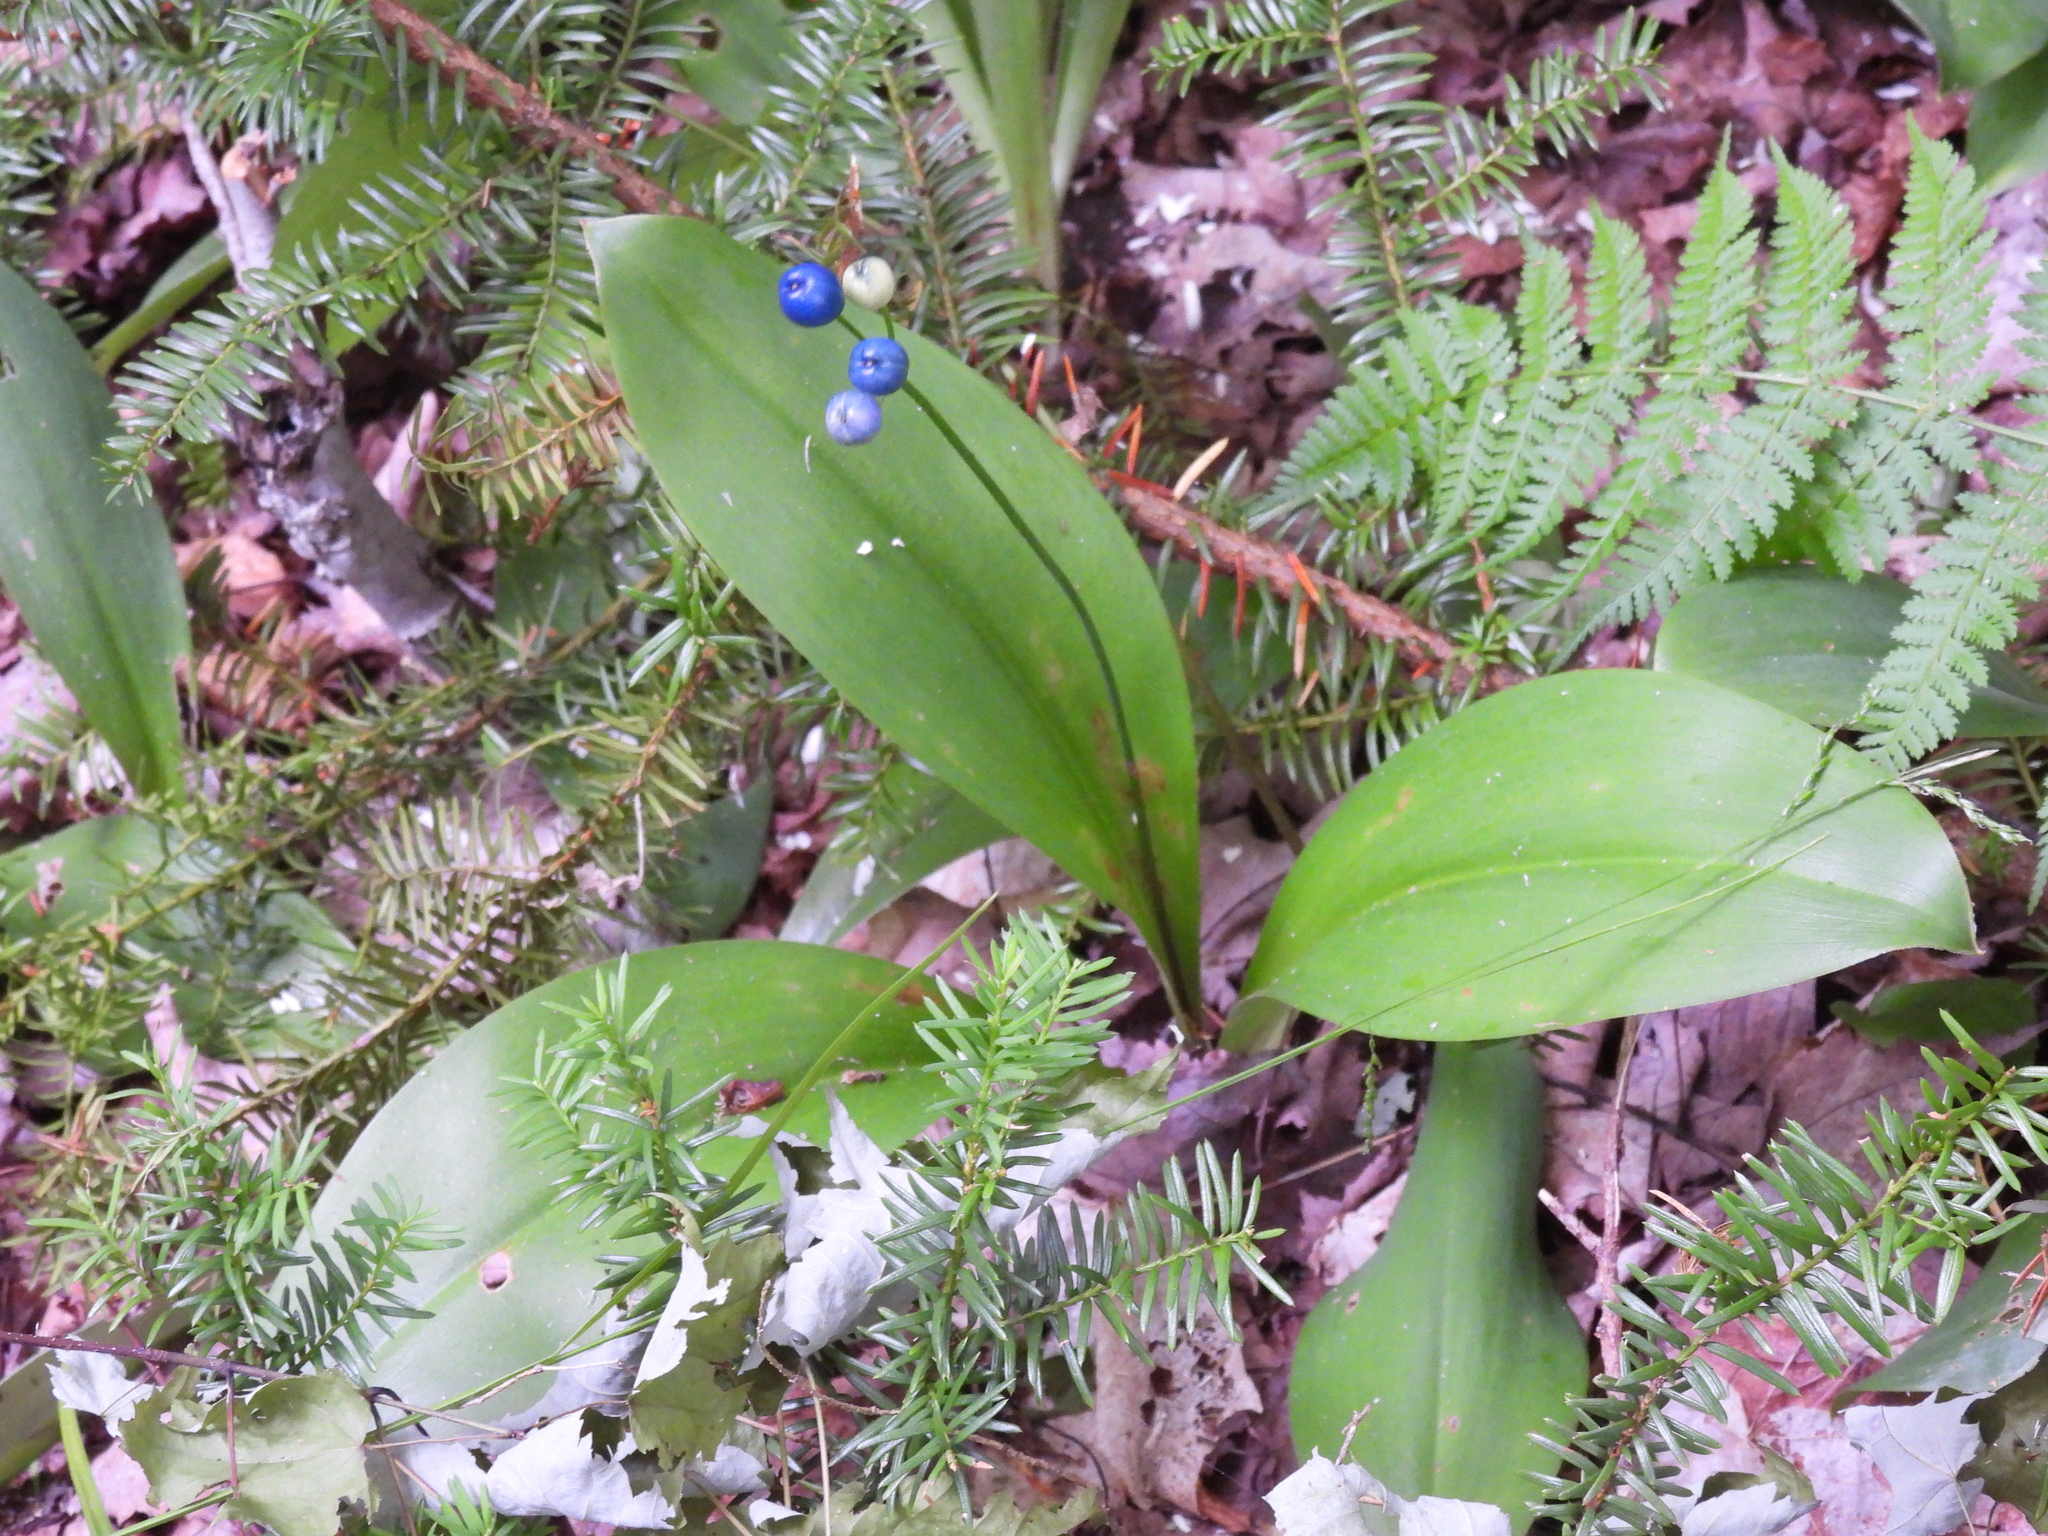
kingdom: Plantae
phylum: Tracheophyta
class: Liliopsida
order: Liliales
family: Liliaceae
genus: Clintonia
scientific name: Clintonia borealis
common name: Yellow clintonia
